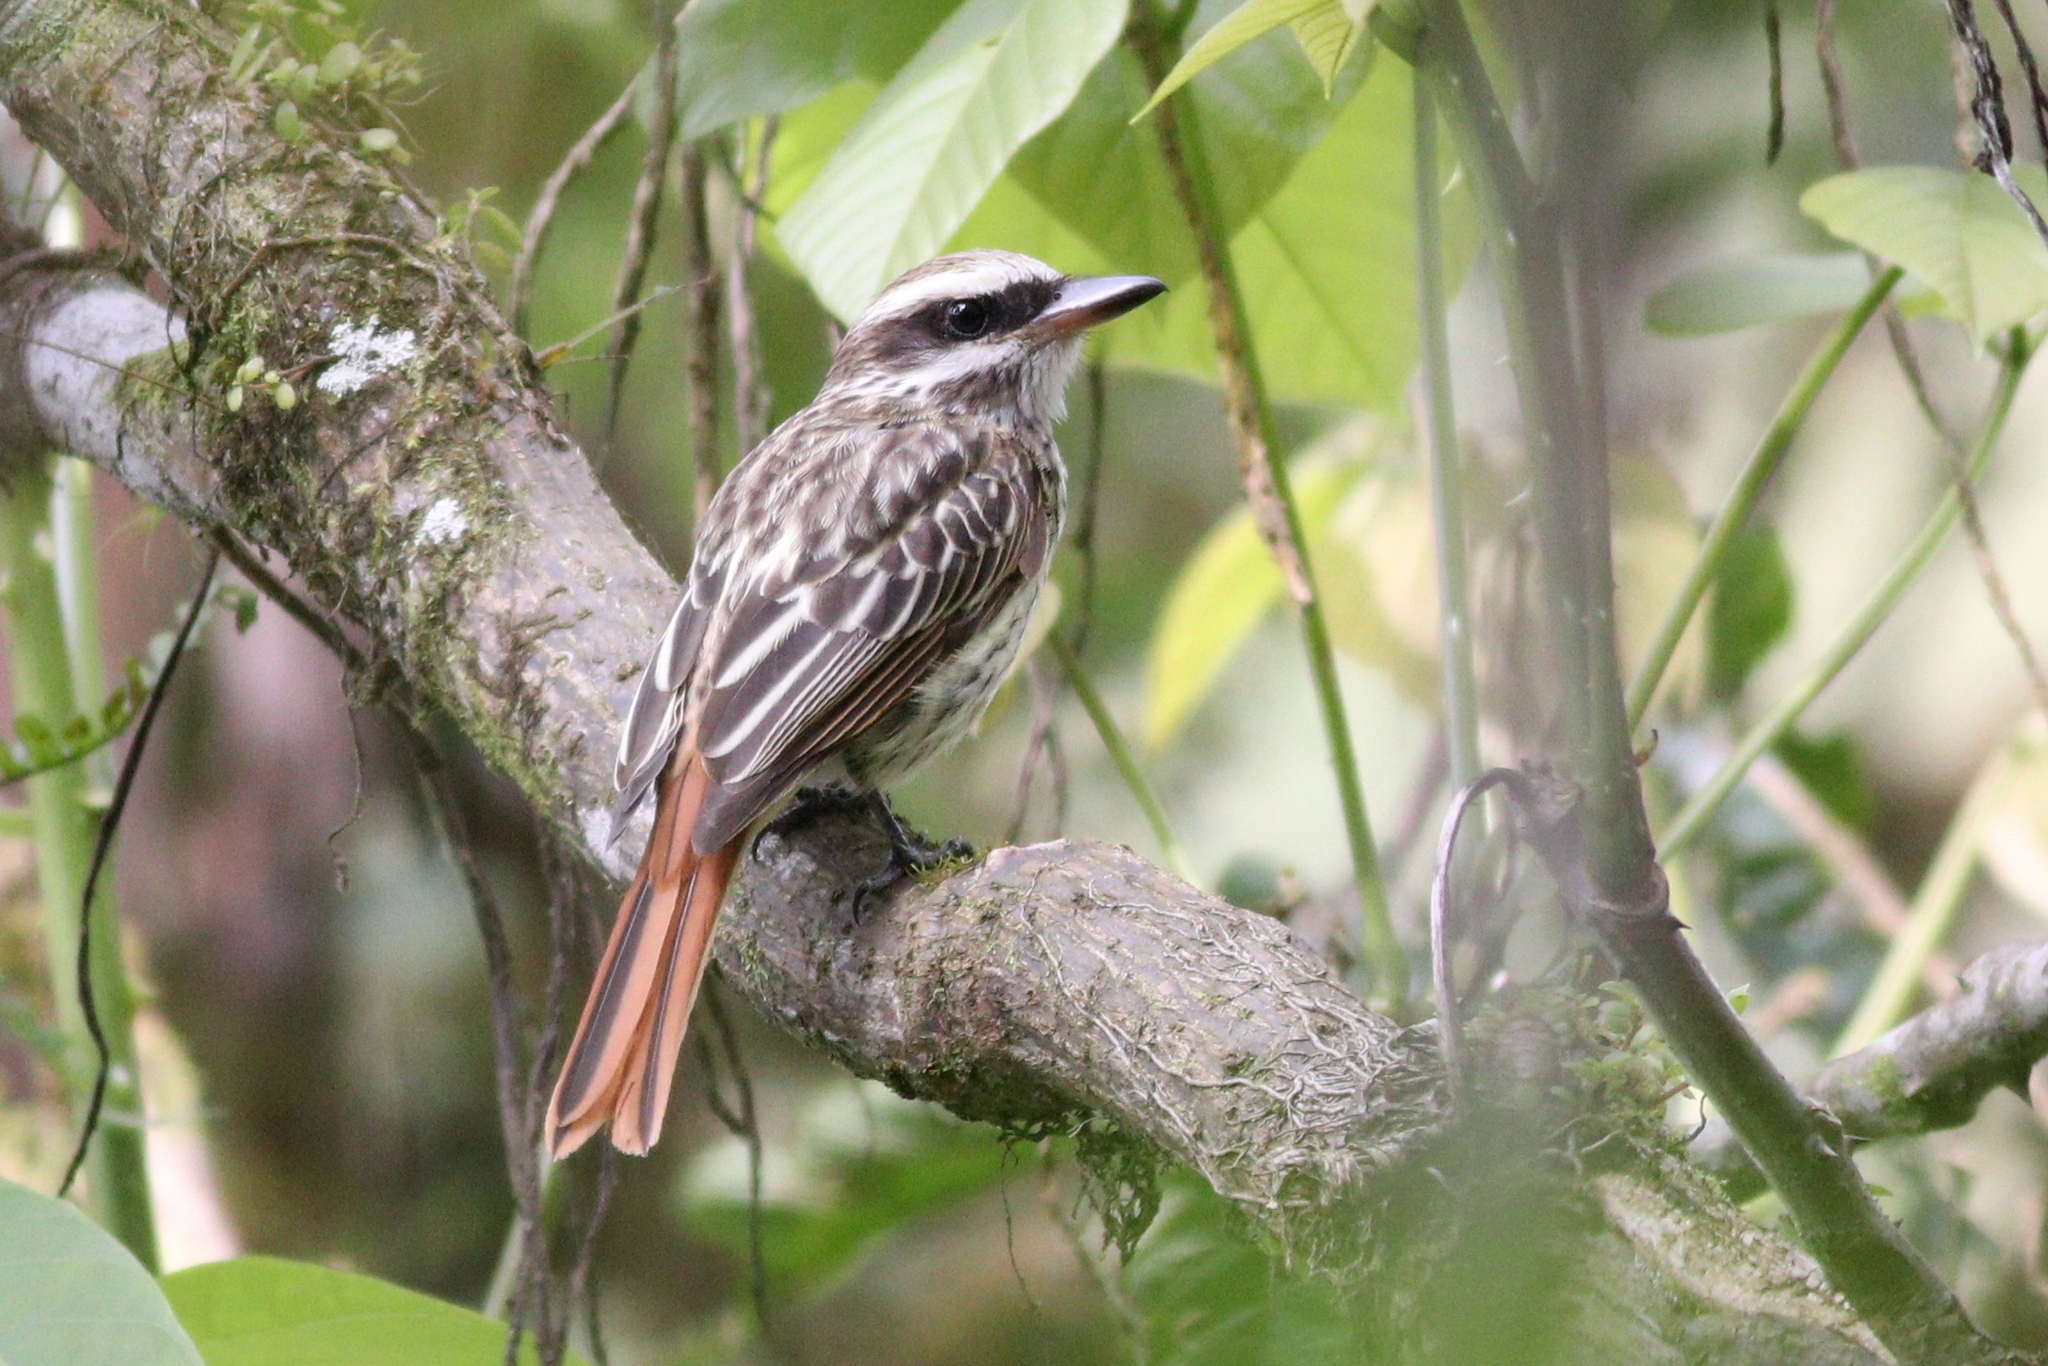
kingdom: Animalia
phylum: Chordata
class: Aves
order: Passeriformes
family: Tyrannidae
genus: Myiodynastes
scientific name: Myiodynastes maculatus
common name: Streaked flycatcher
